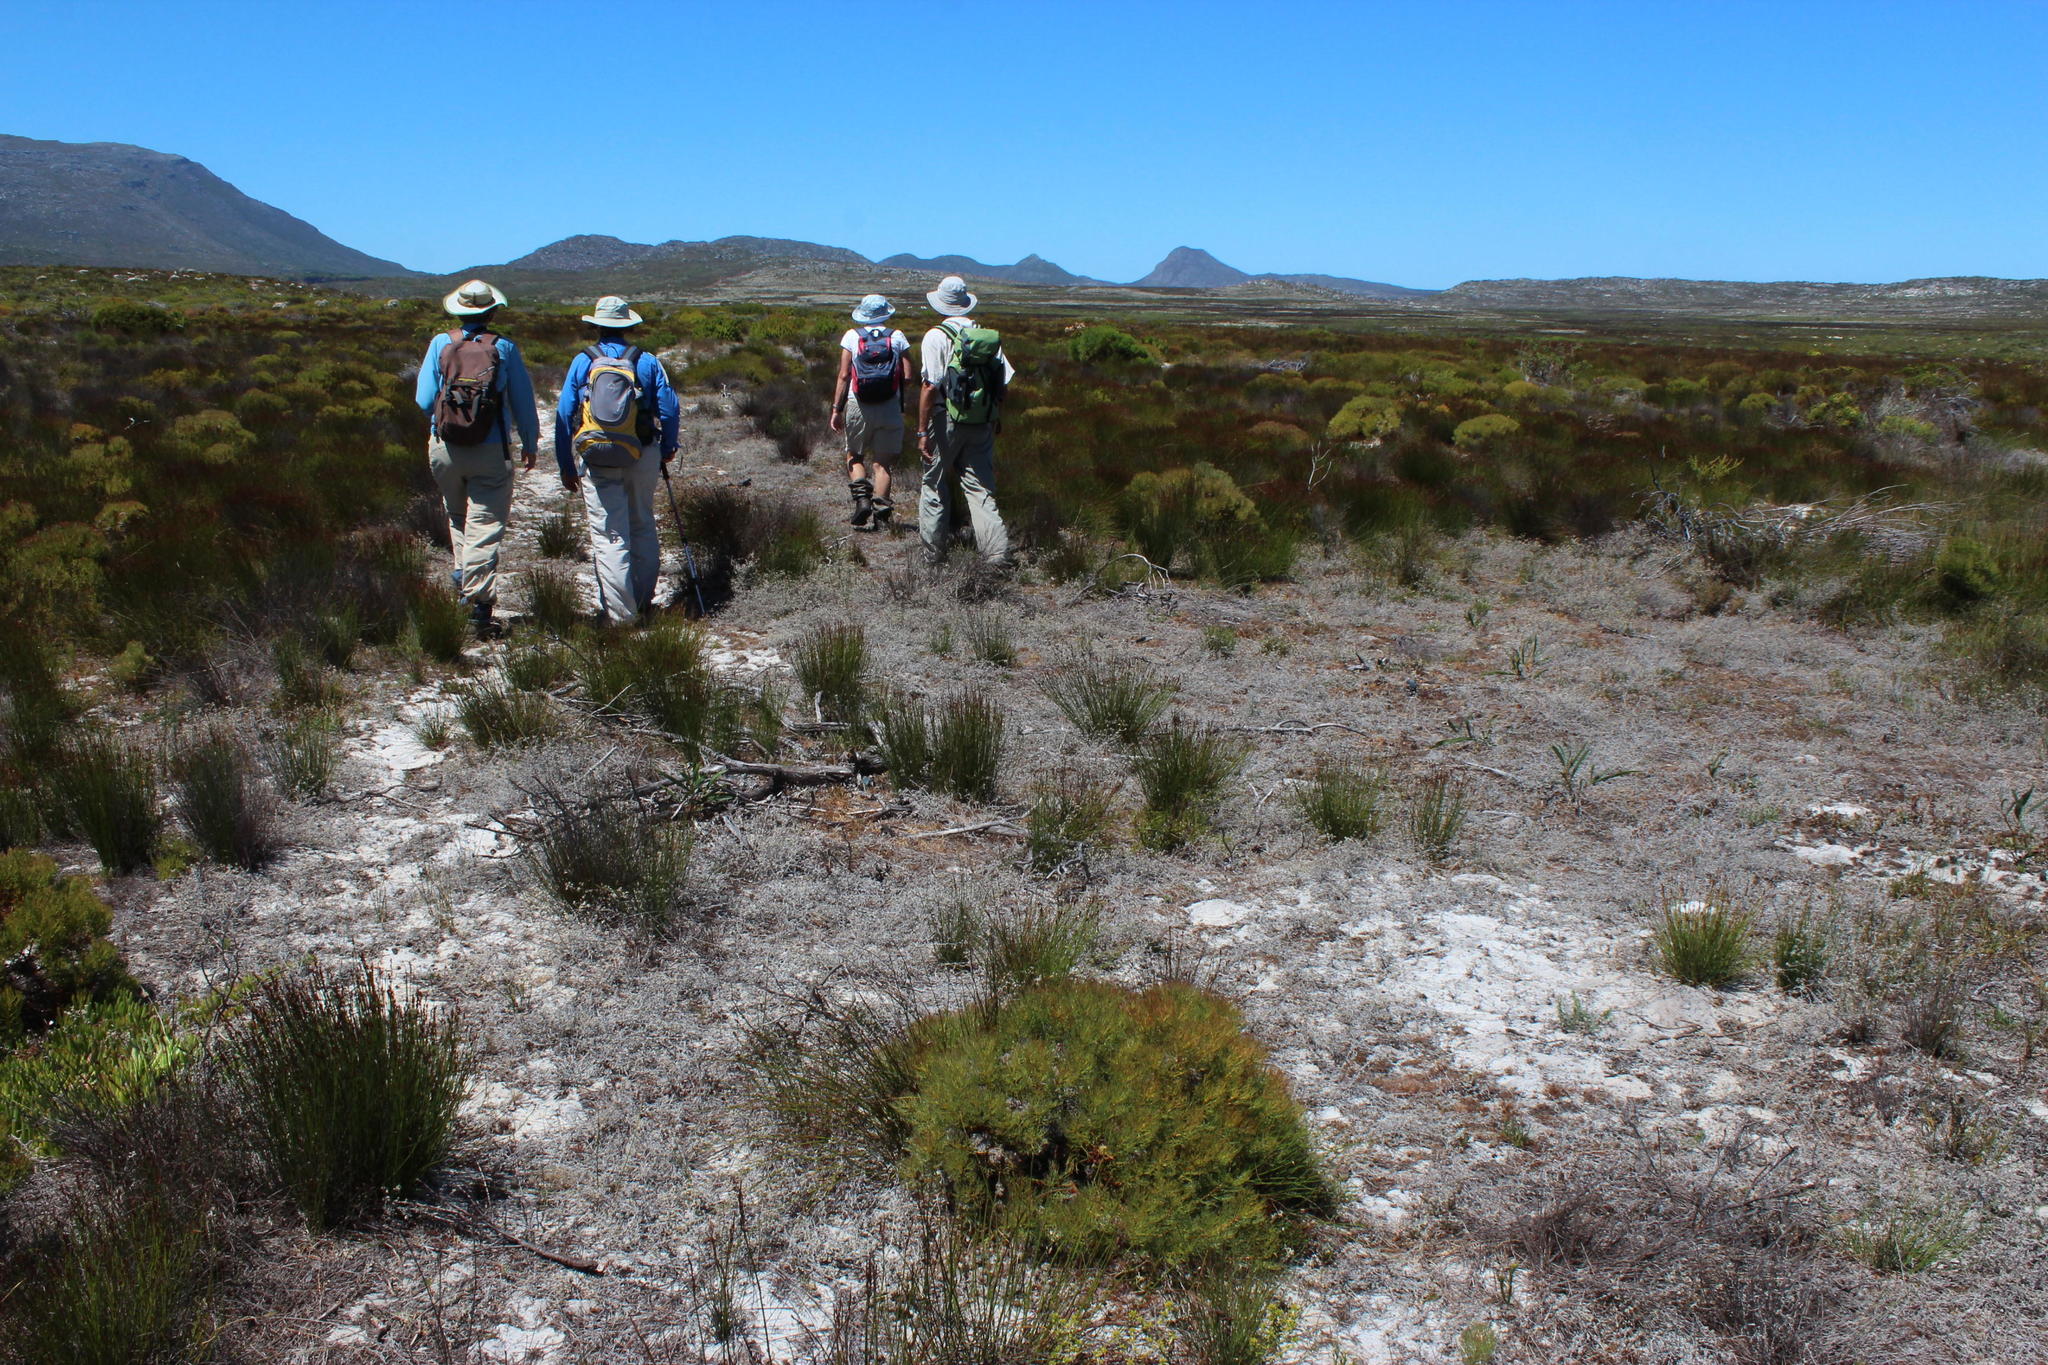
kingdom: Plantae
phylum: Tracheophyta
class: Magnoliopsida
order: Proteales
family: Proteaceae
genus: Serruria
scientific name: Serruria glomerata
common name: Cluster spiderhead
